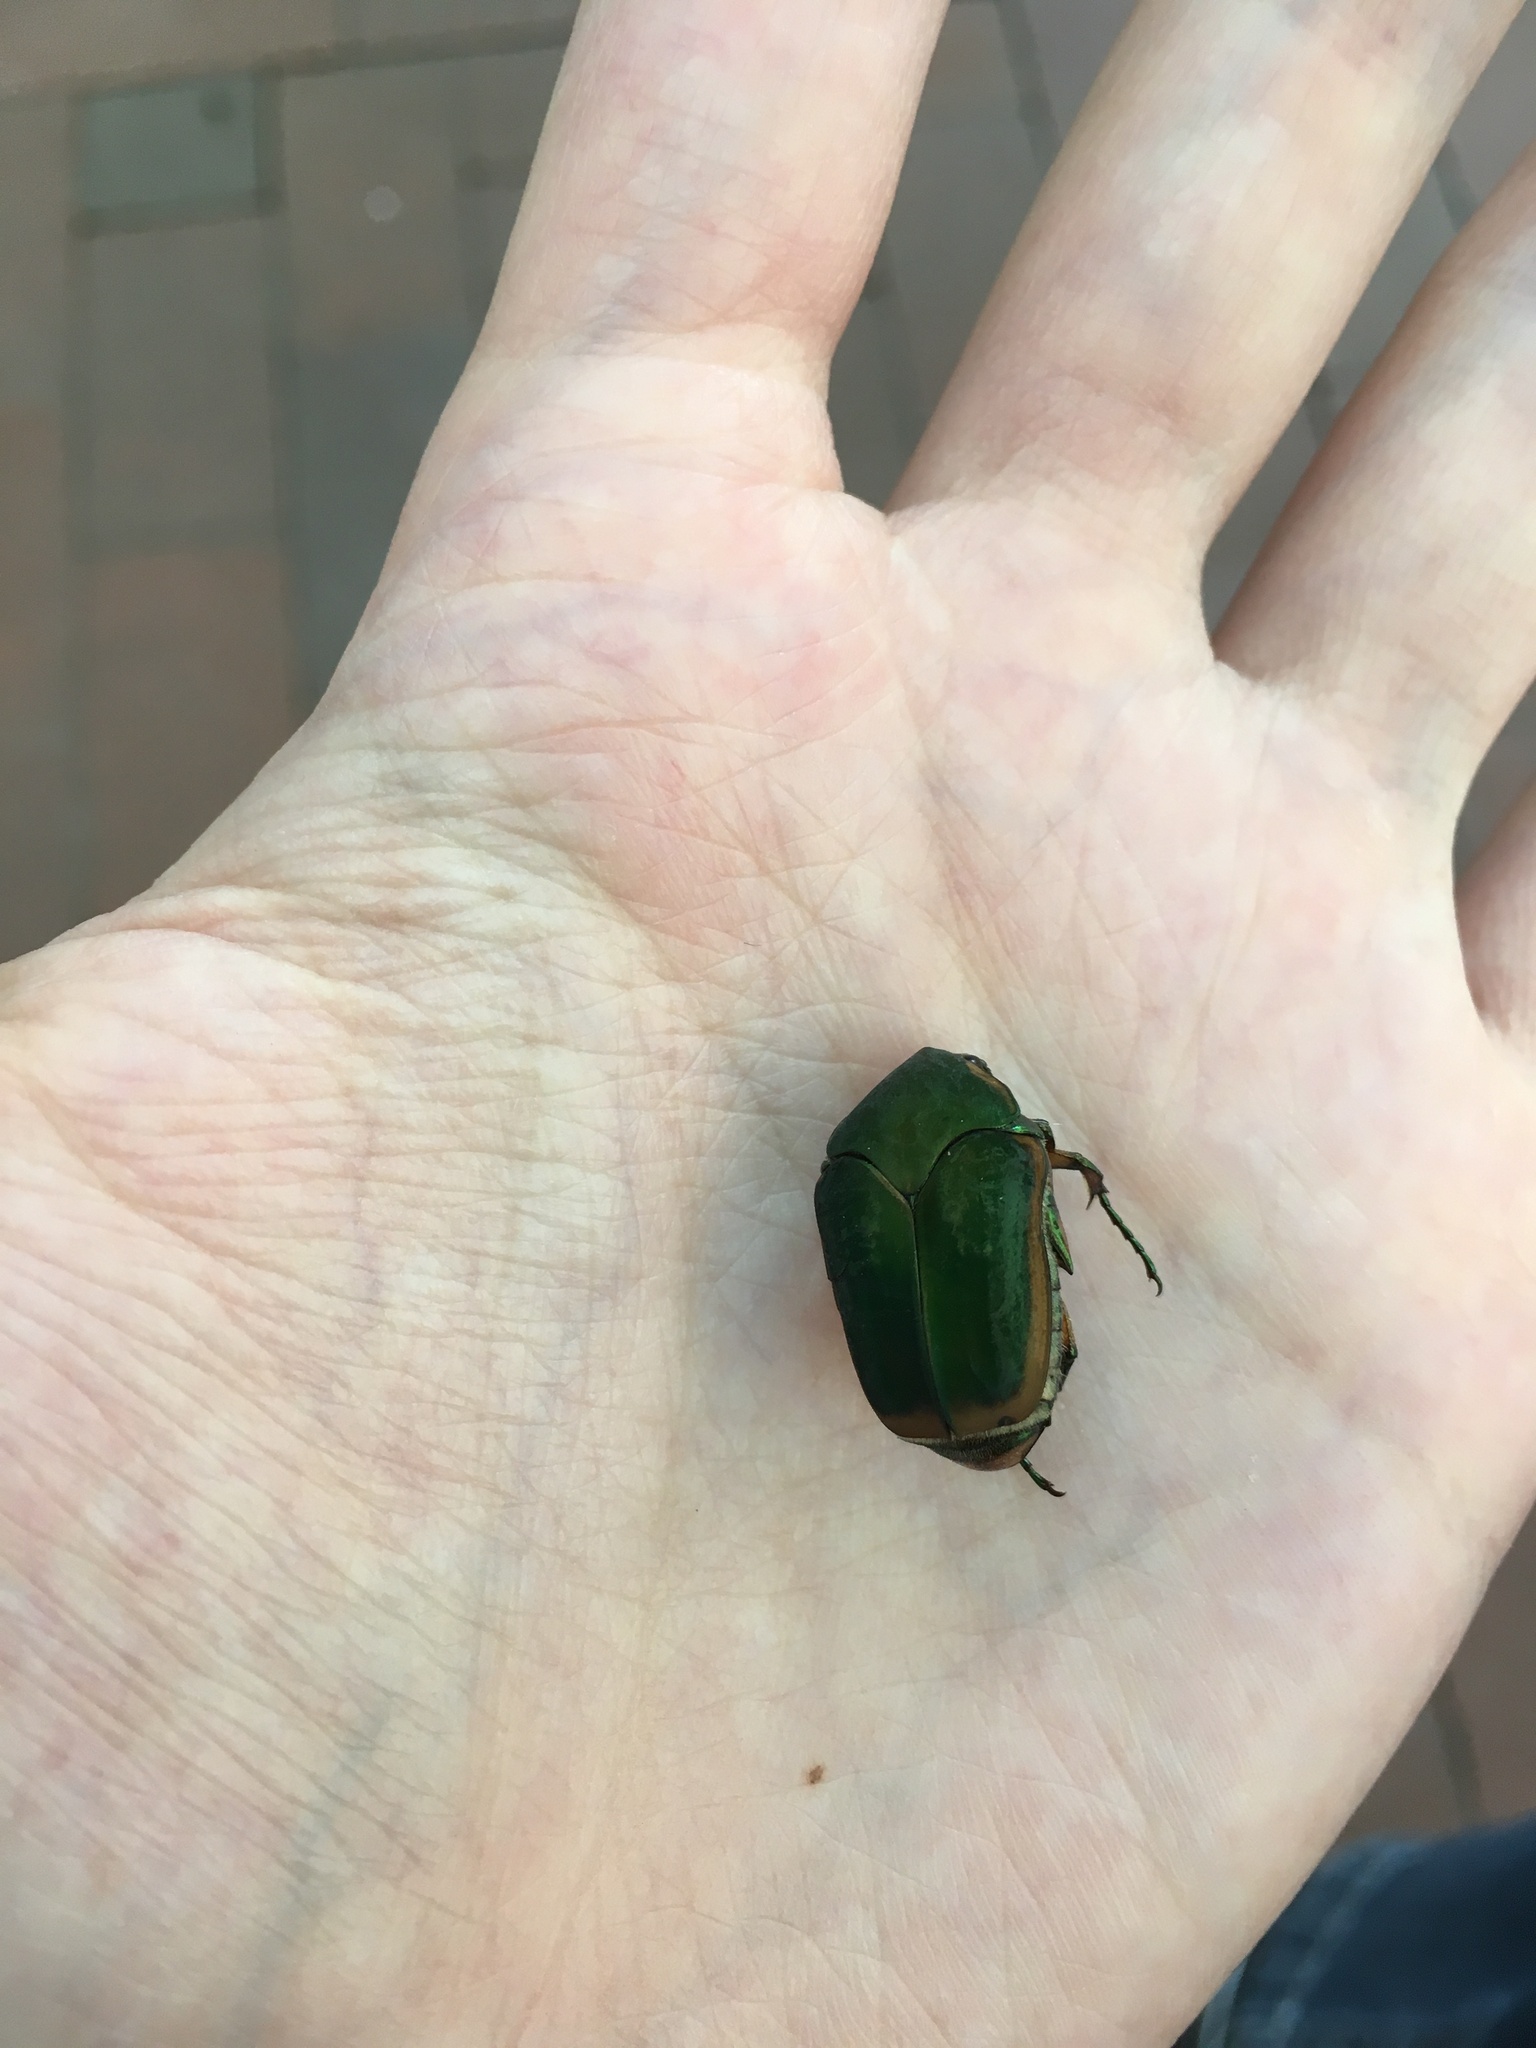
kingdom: Animalia
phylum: Arthropoda
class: Insecta
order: Coleoptera
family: Scarabaeidae
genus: Cotinis
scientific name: Cotinis nitida
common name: Common green june beetle
